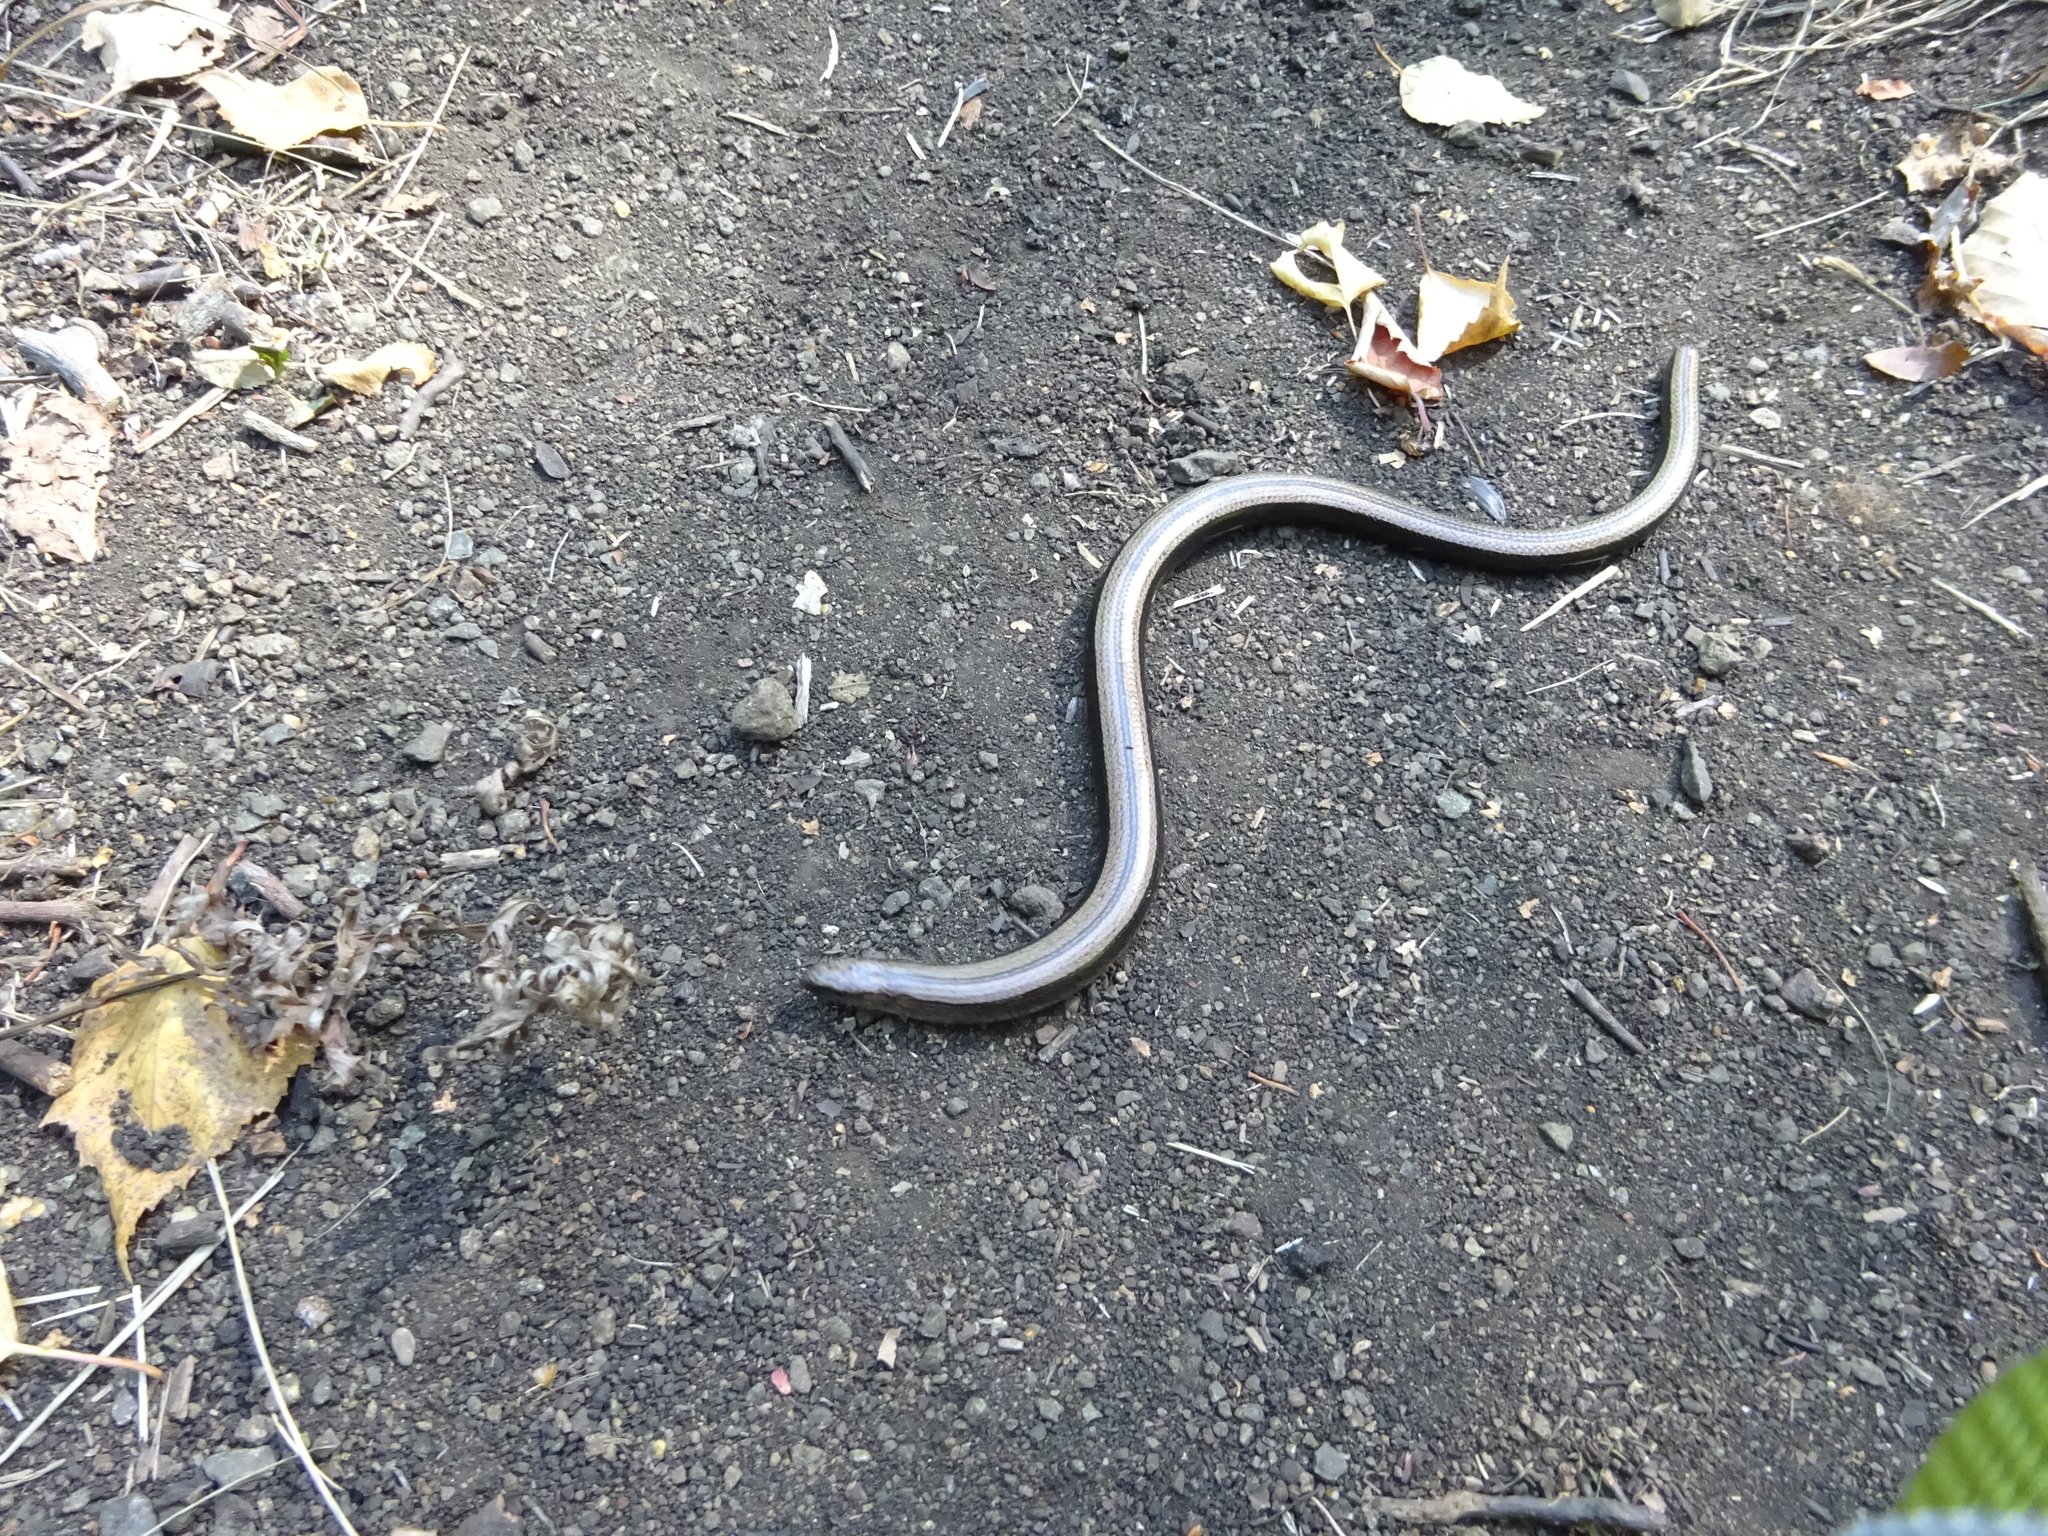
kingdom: Animalia
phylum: Chordata
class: Squamata
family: Anguidae
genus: Anguis
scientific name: Anguis colchica
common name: Slow worm
